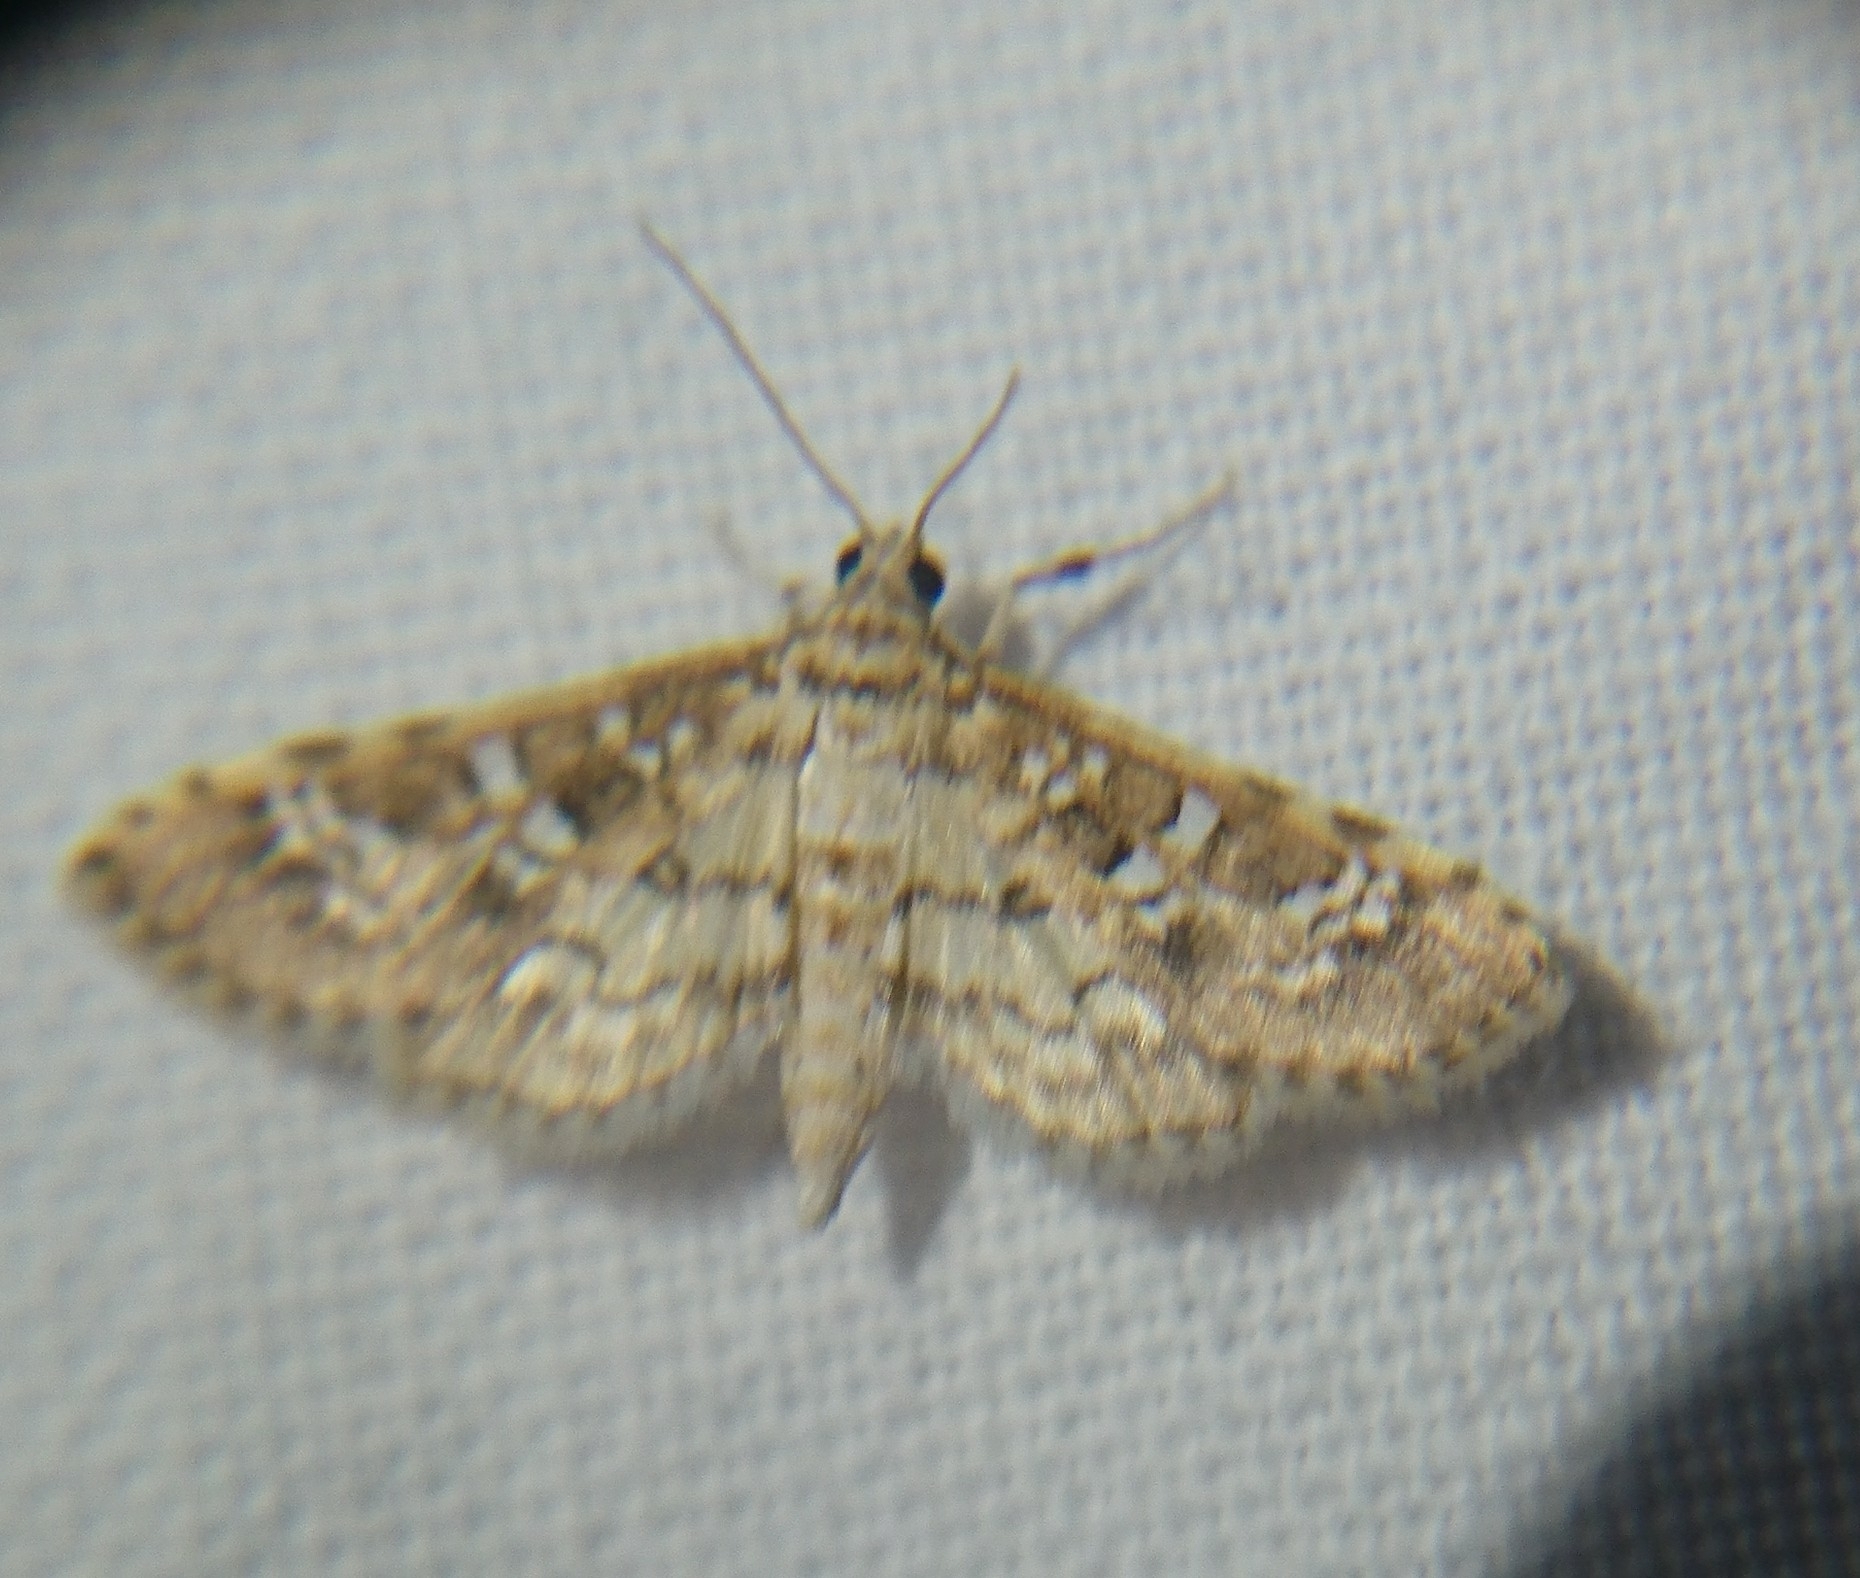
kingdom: Animalia
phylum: Arthropoda
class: Insecta
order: Lepidoptera
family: Crambidae
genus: Samea
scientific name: Samea multiplicalis
